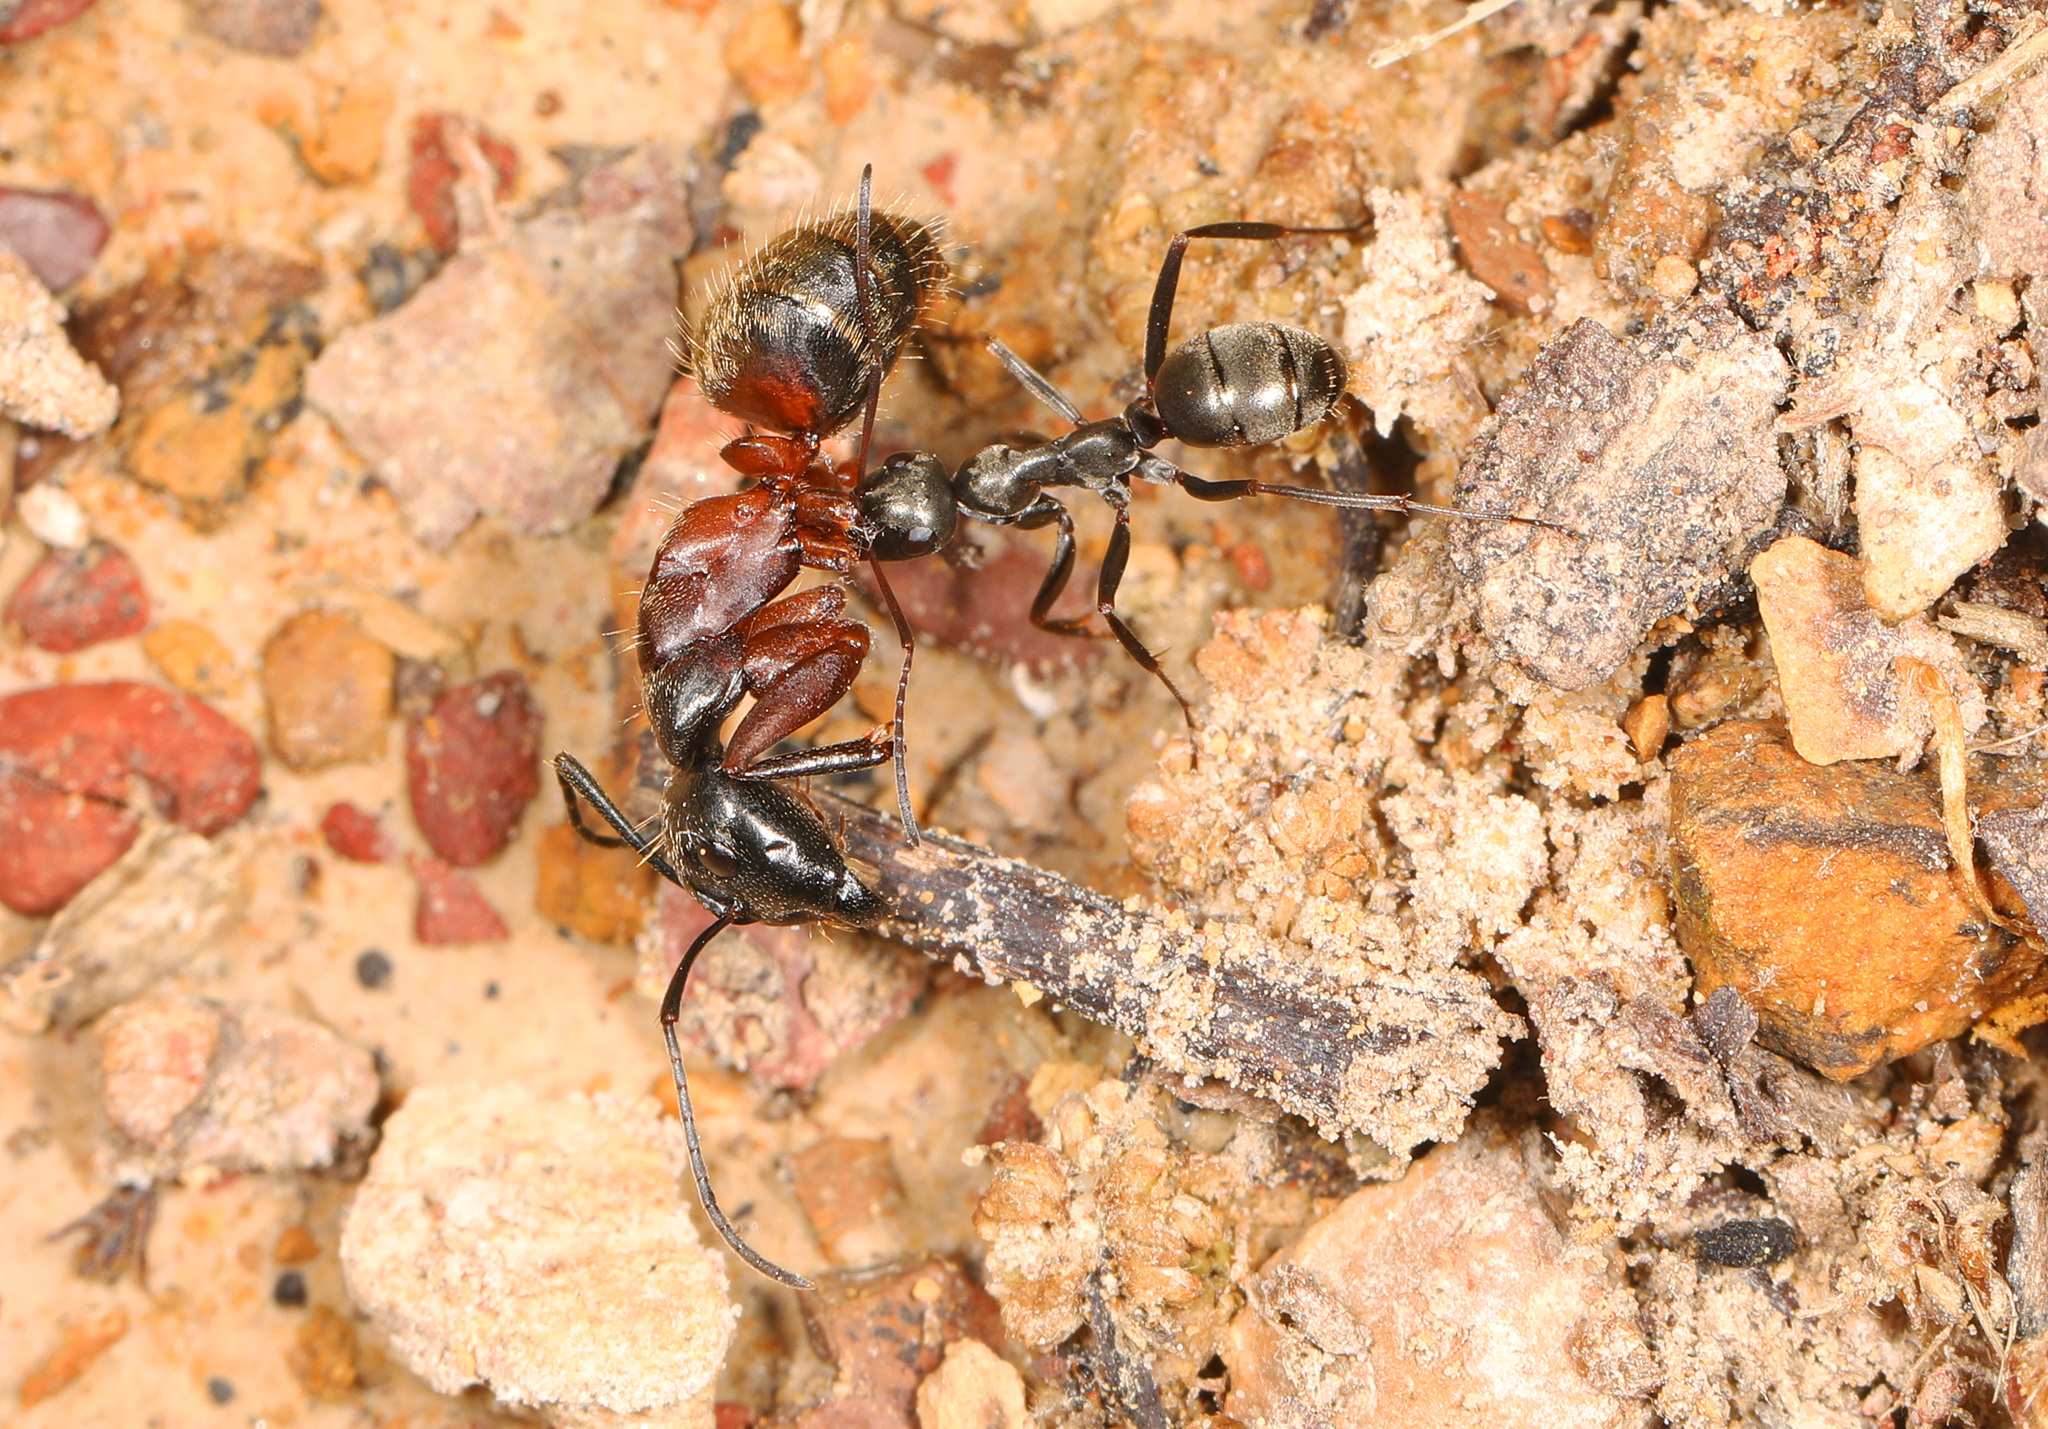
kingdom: Animalia
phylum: Arthropoda
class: Insecta
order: Hymenoptera
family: Formicidae
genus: Camponotus
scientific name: Camponotus chromaiodes
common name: Red carpenter ant
